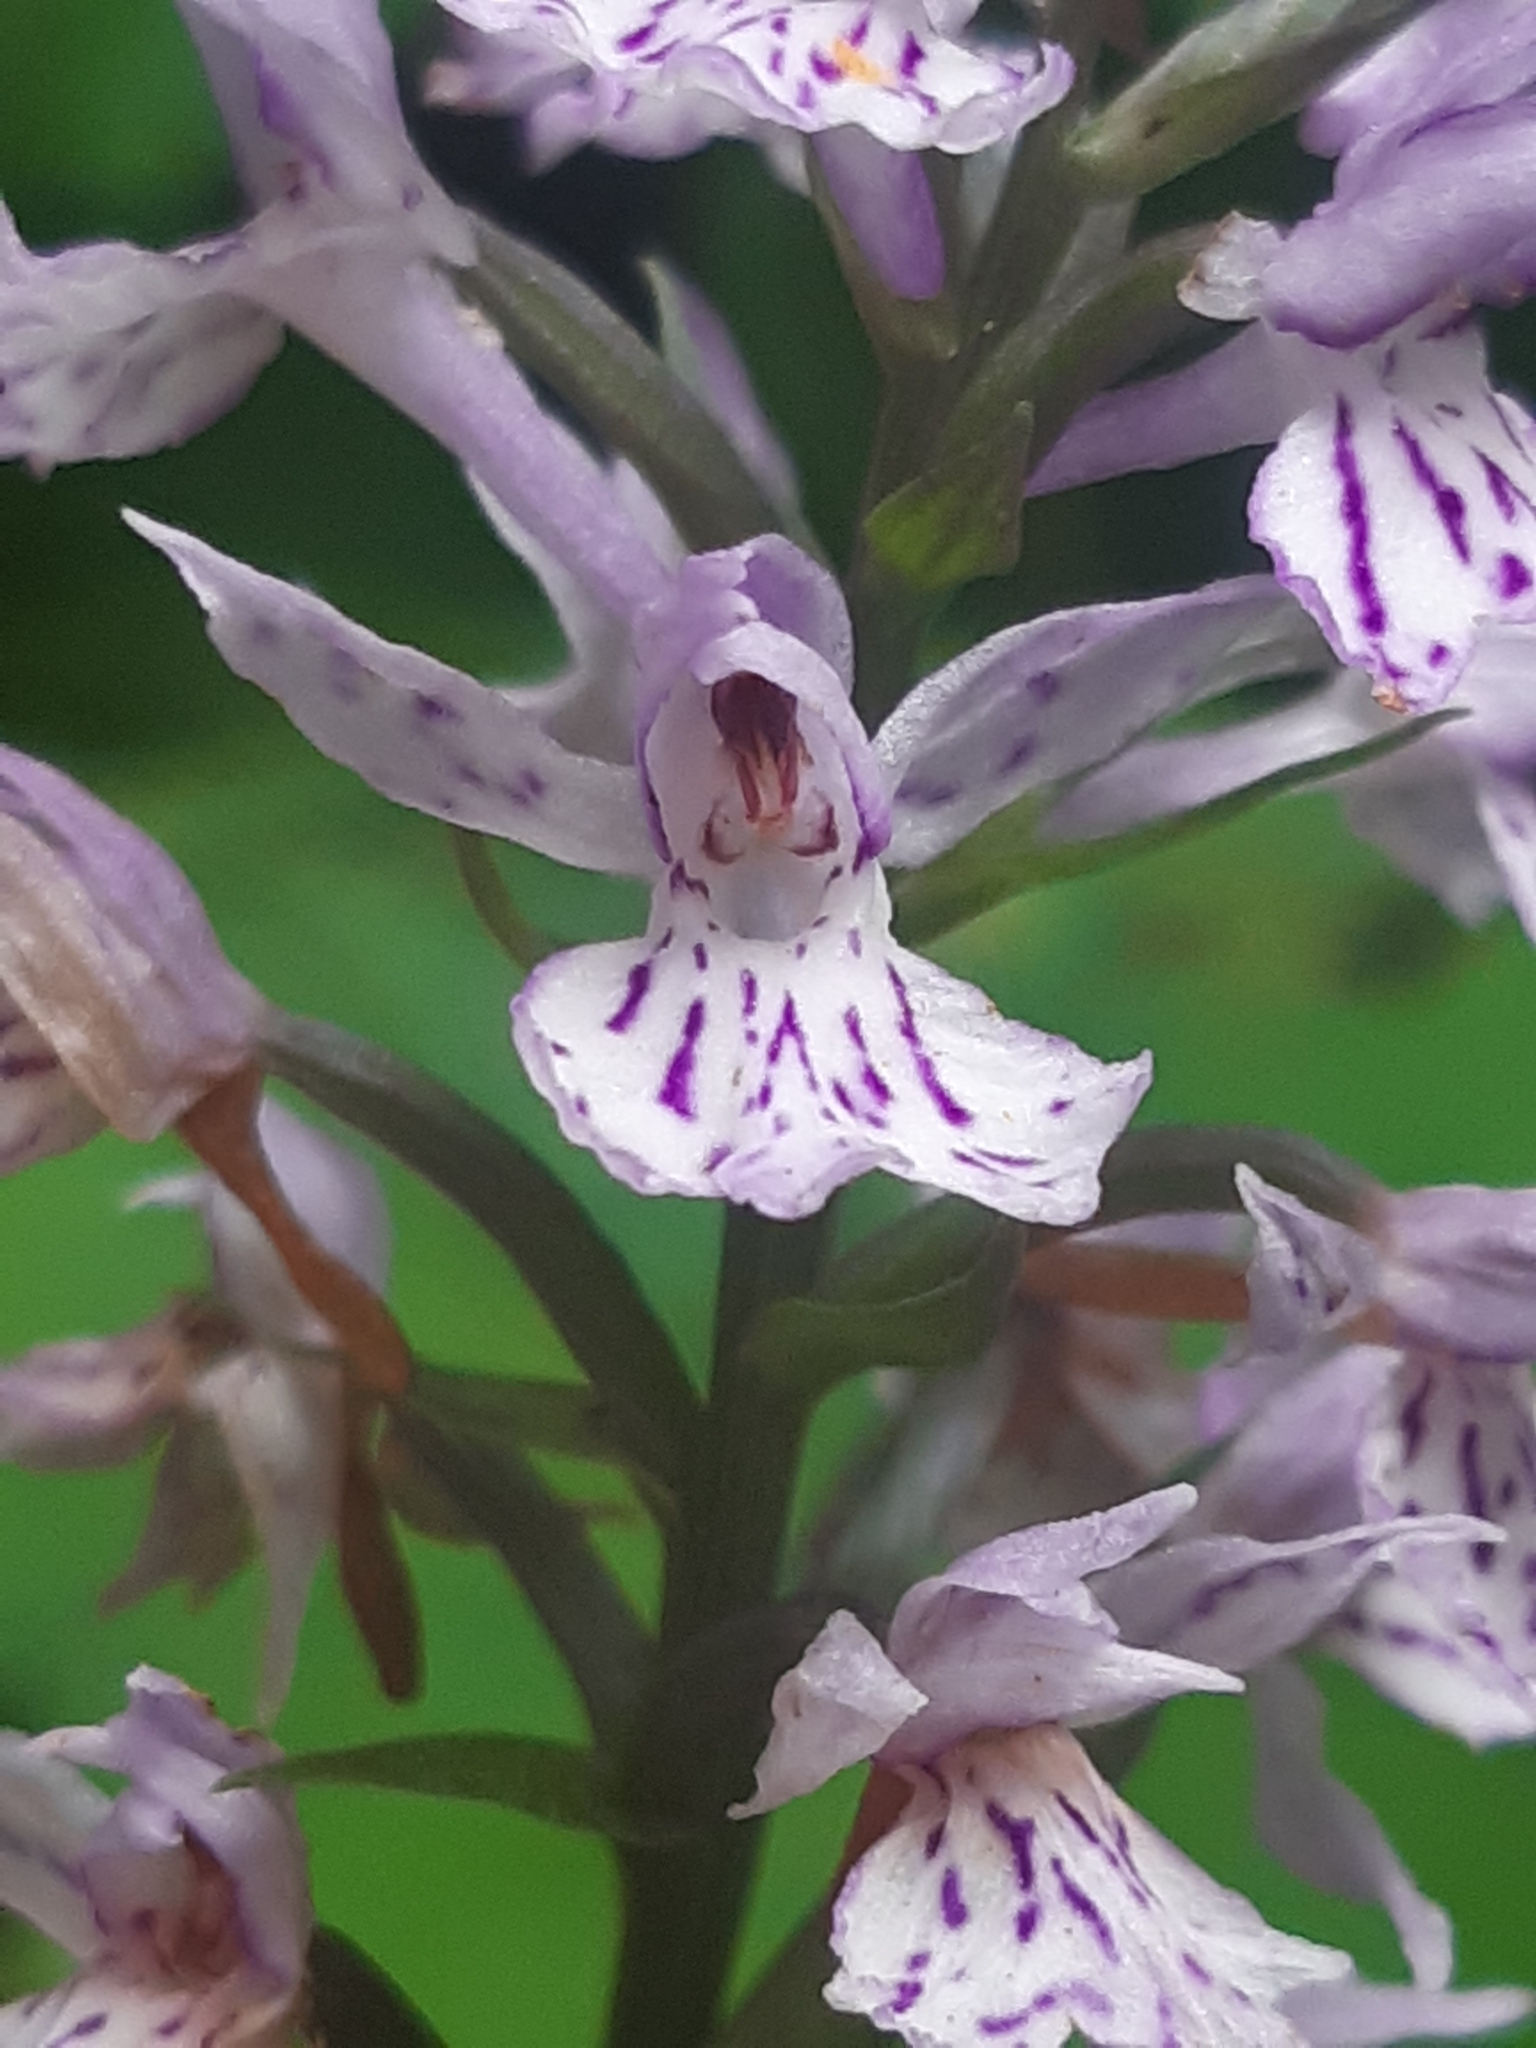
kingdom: Plantae
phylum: Tracheophyta
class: Liliopsida
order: Asparagales
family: Orchidaceae
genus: Dactylorhiza
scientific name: Dactylorhiza maculata
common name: Heath spotted-orchid
